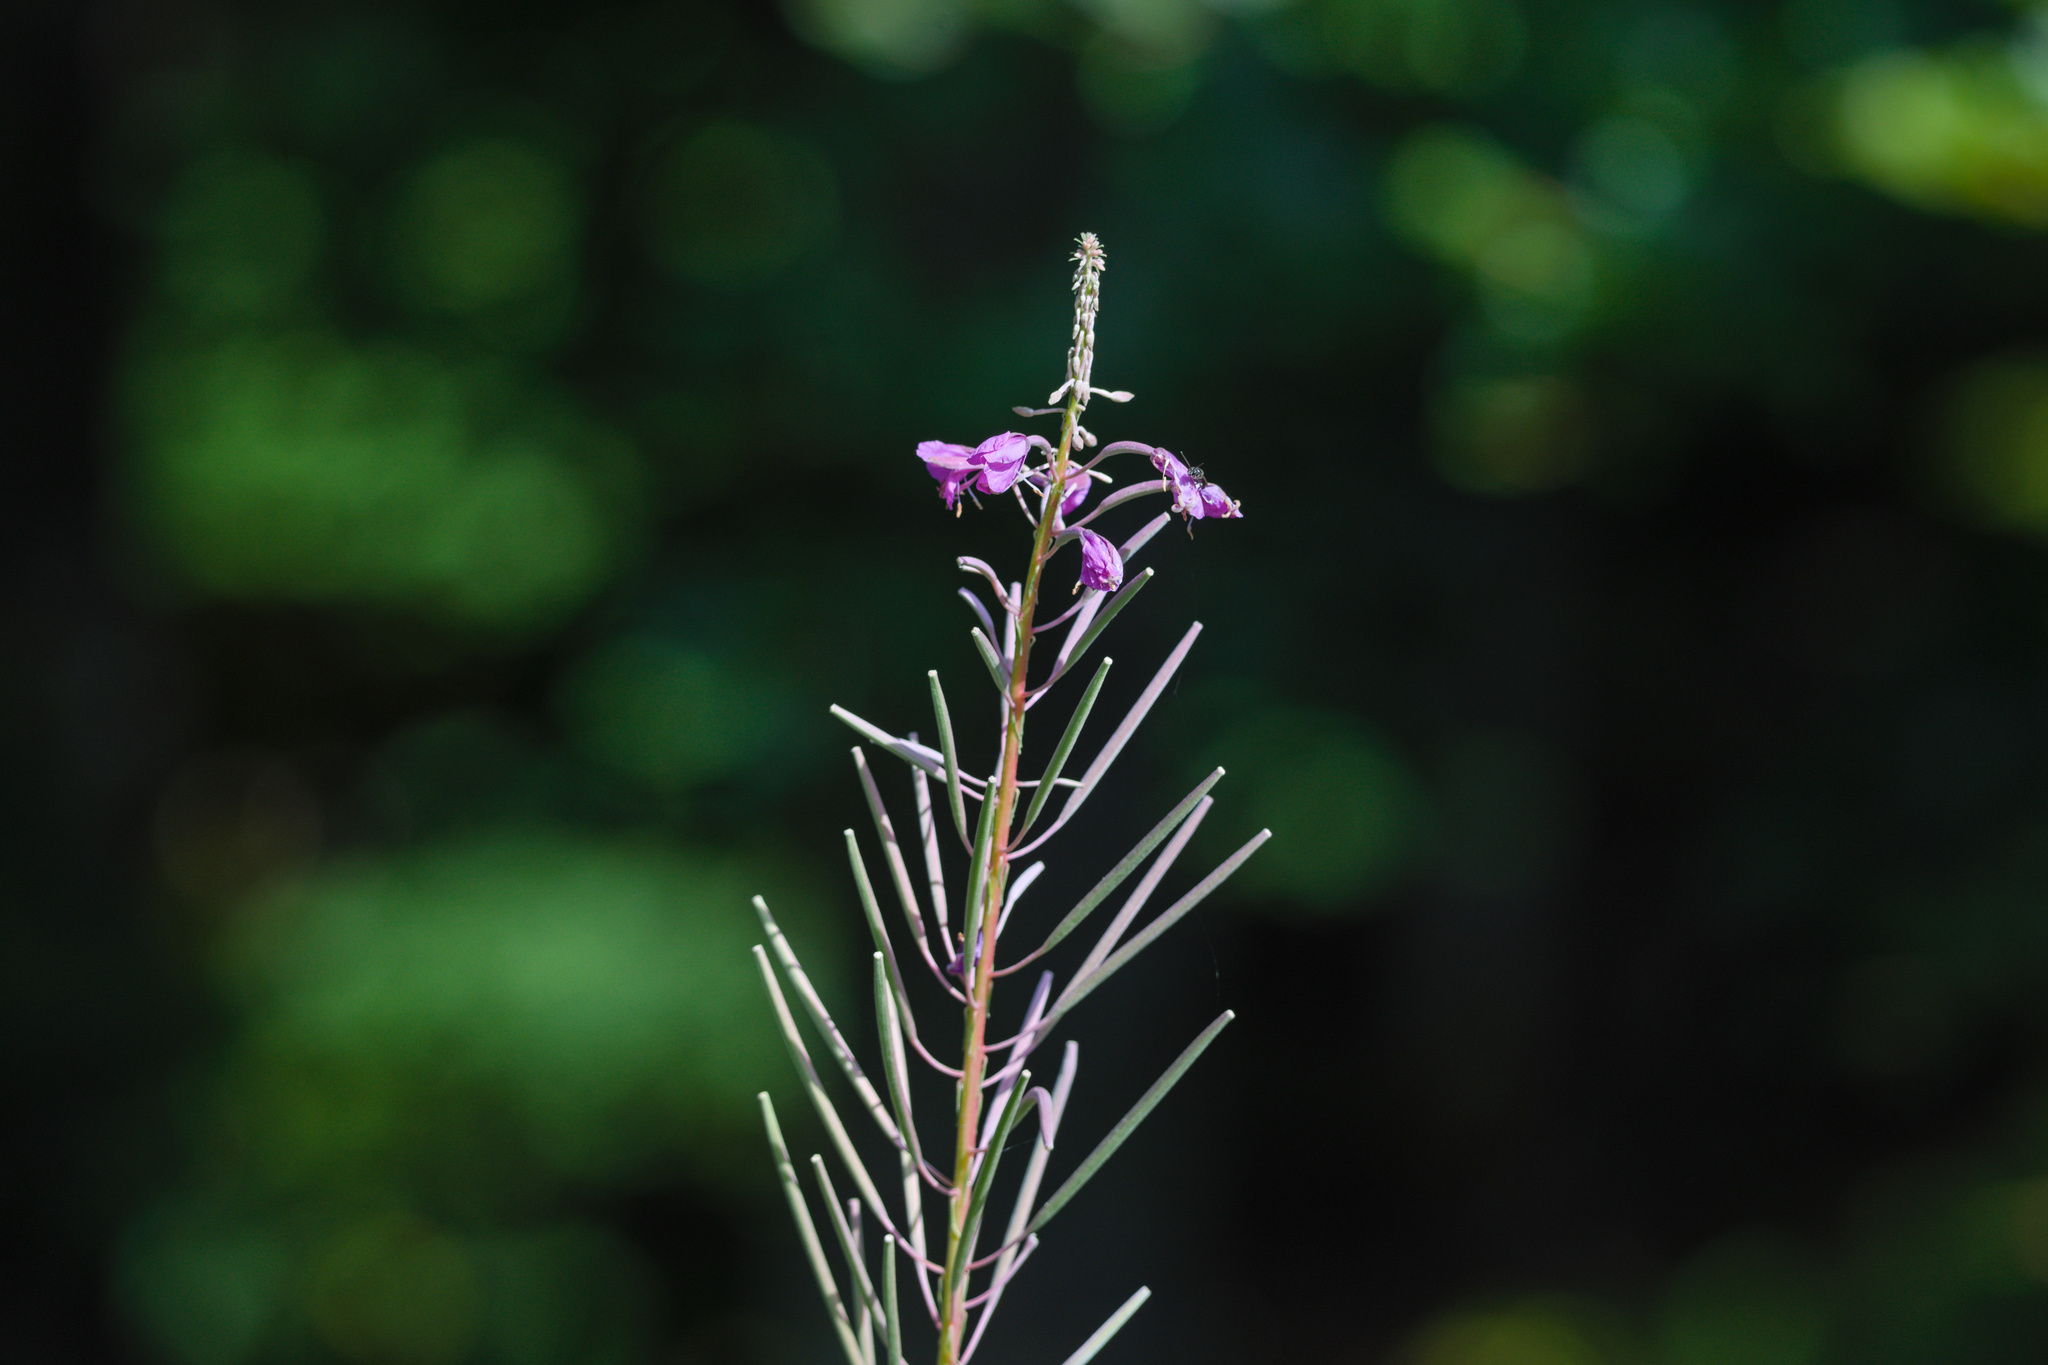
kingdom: Plantae
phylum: Tracheophyta
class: Magnoliopsida
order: Myrtales
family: Onagraceae
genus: Chamaenerion
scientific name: Chamaenerion angustifolium
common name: Fireweed
